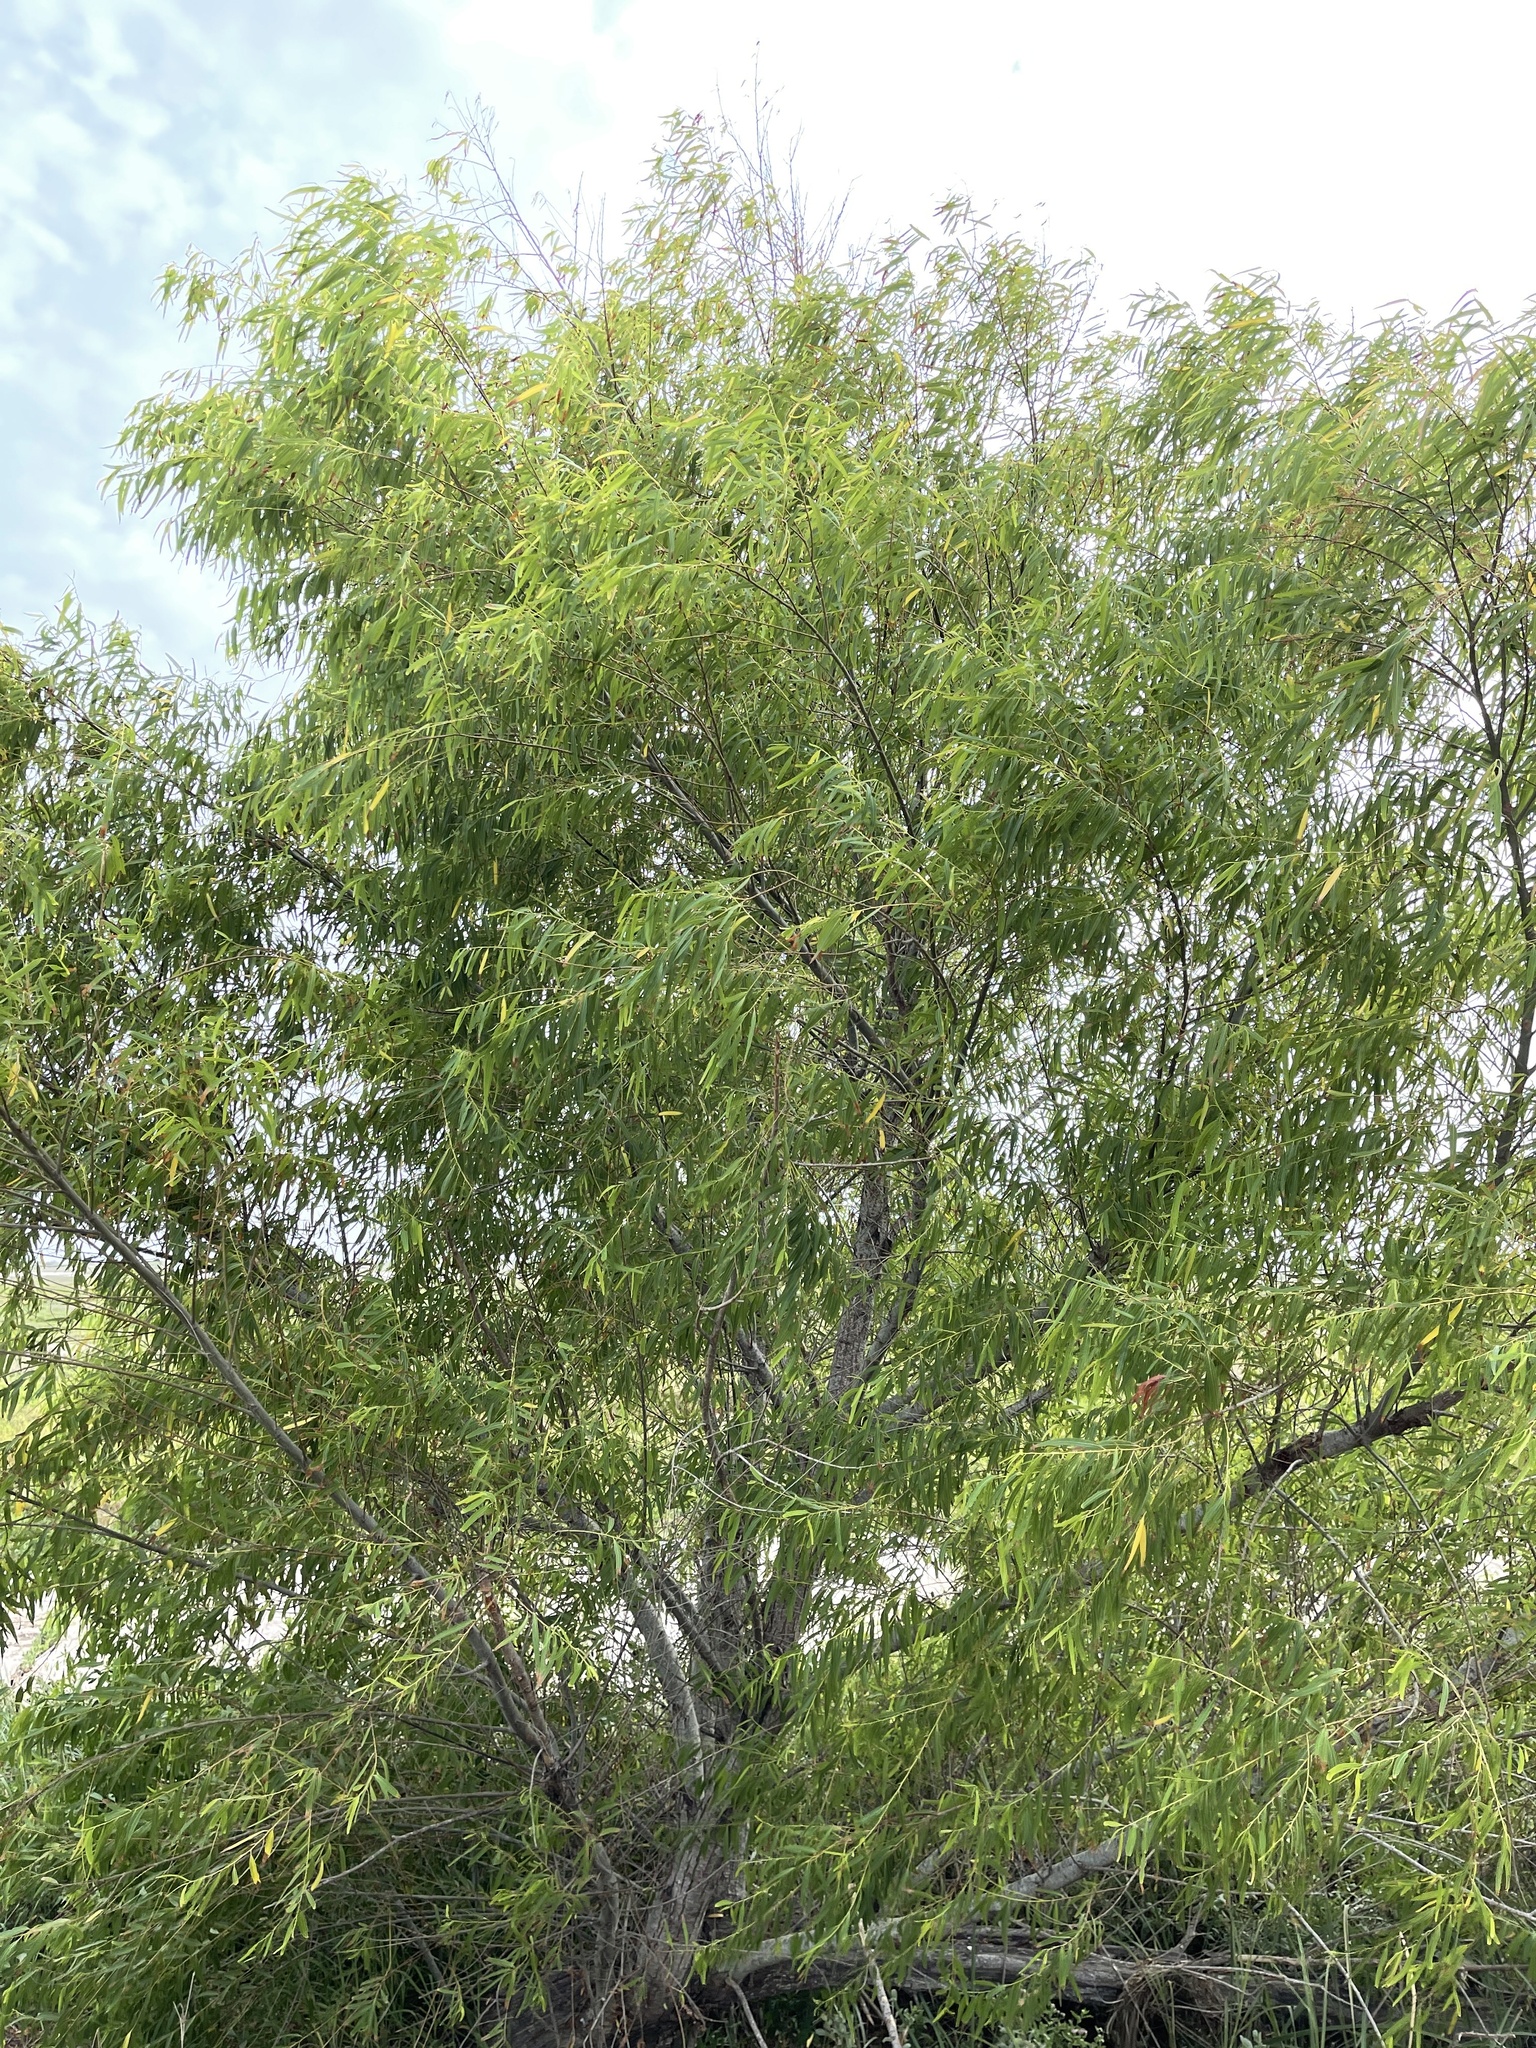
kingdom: Plantae
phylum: Tracheophyta
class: Magnoliopsida
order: Malpighiales
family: Salicaceae
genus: Salix
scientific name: Salix nigra
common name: Black willow
